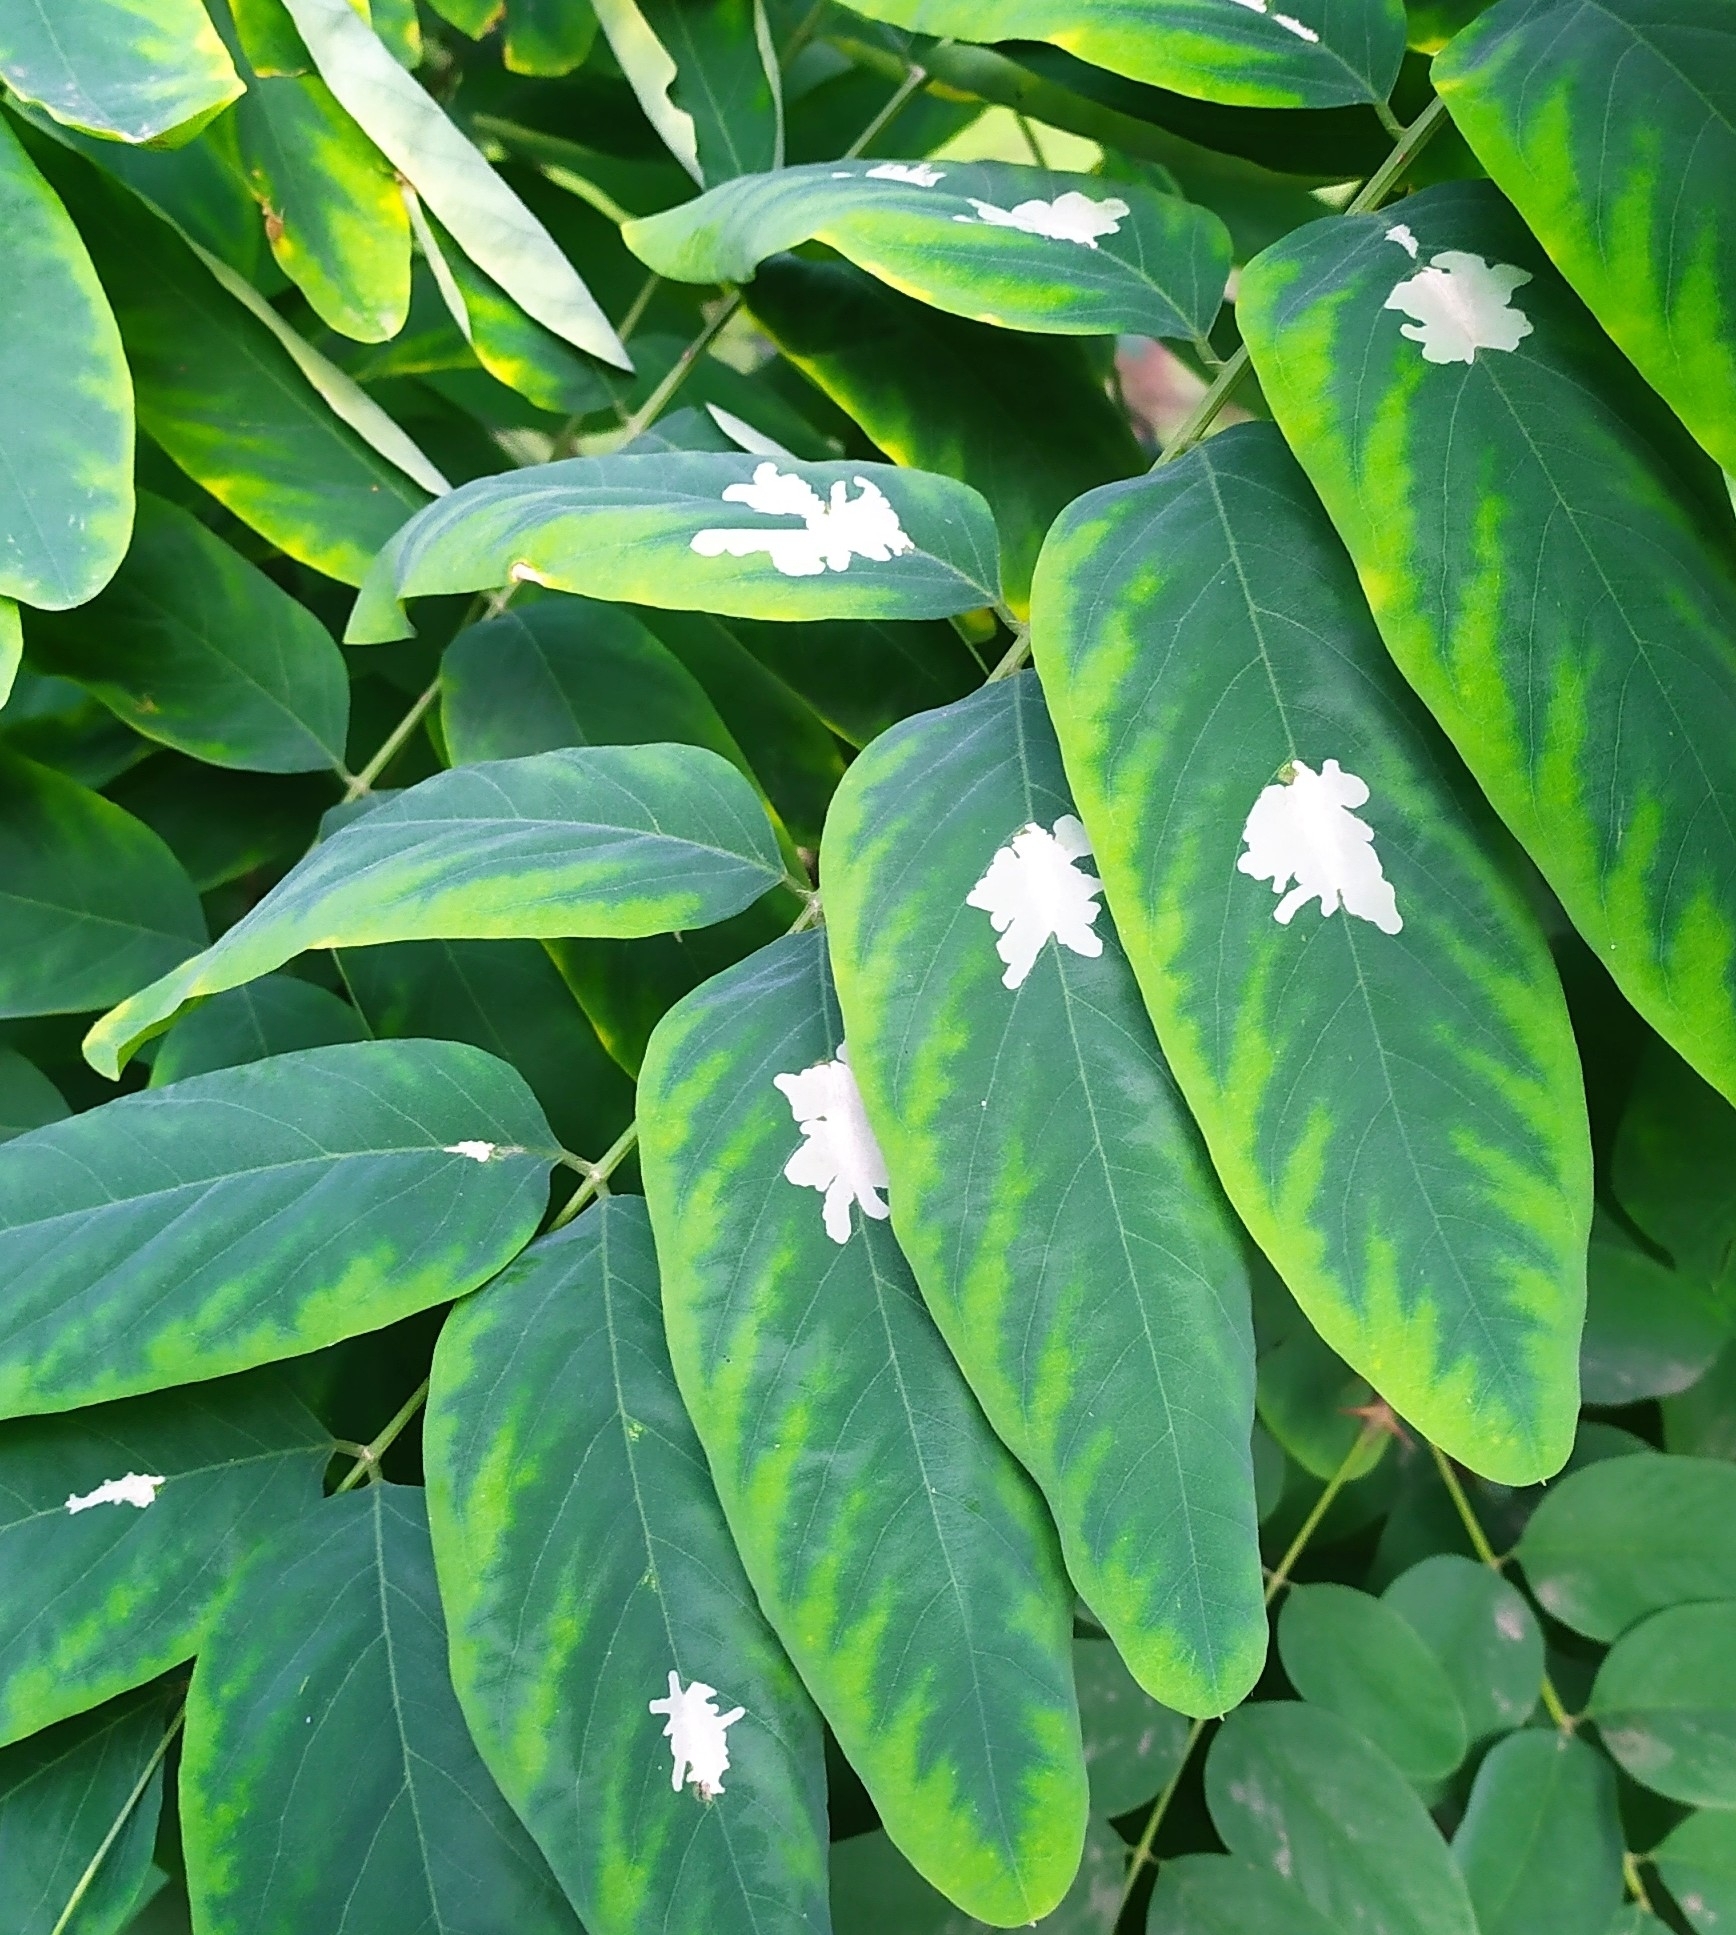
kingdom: Animalia
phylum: Arthropoda
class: Insecta
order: Lepidoptera
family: Gracillariidae
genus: Parectopa
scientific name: Parectopa robiniella
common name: Locust digitate leafminer
